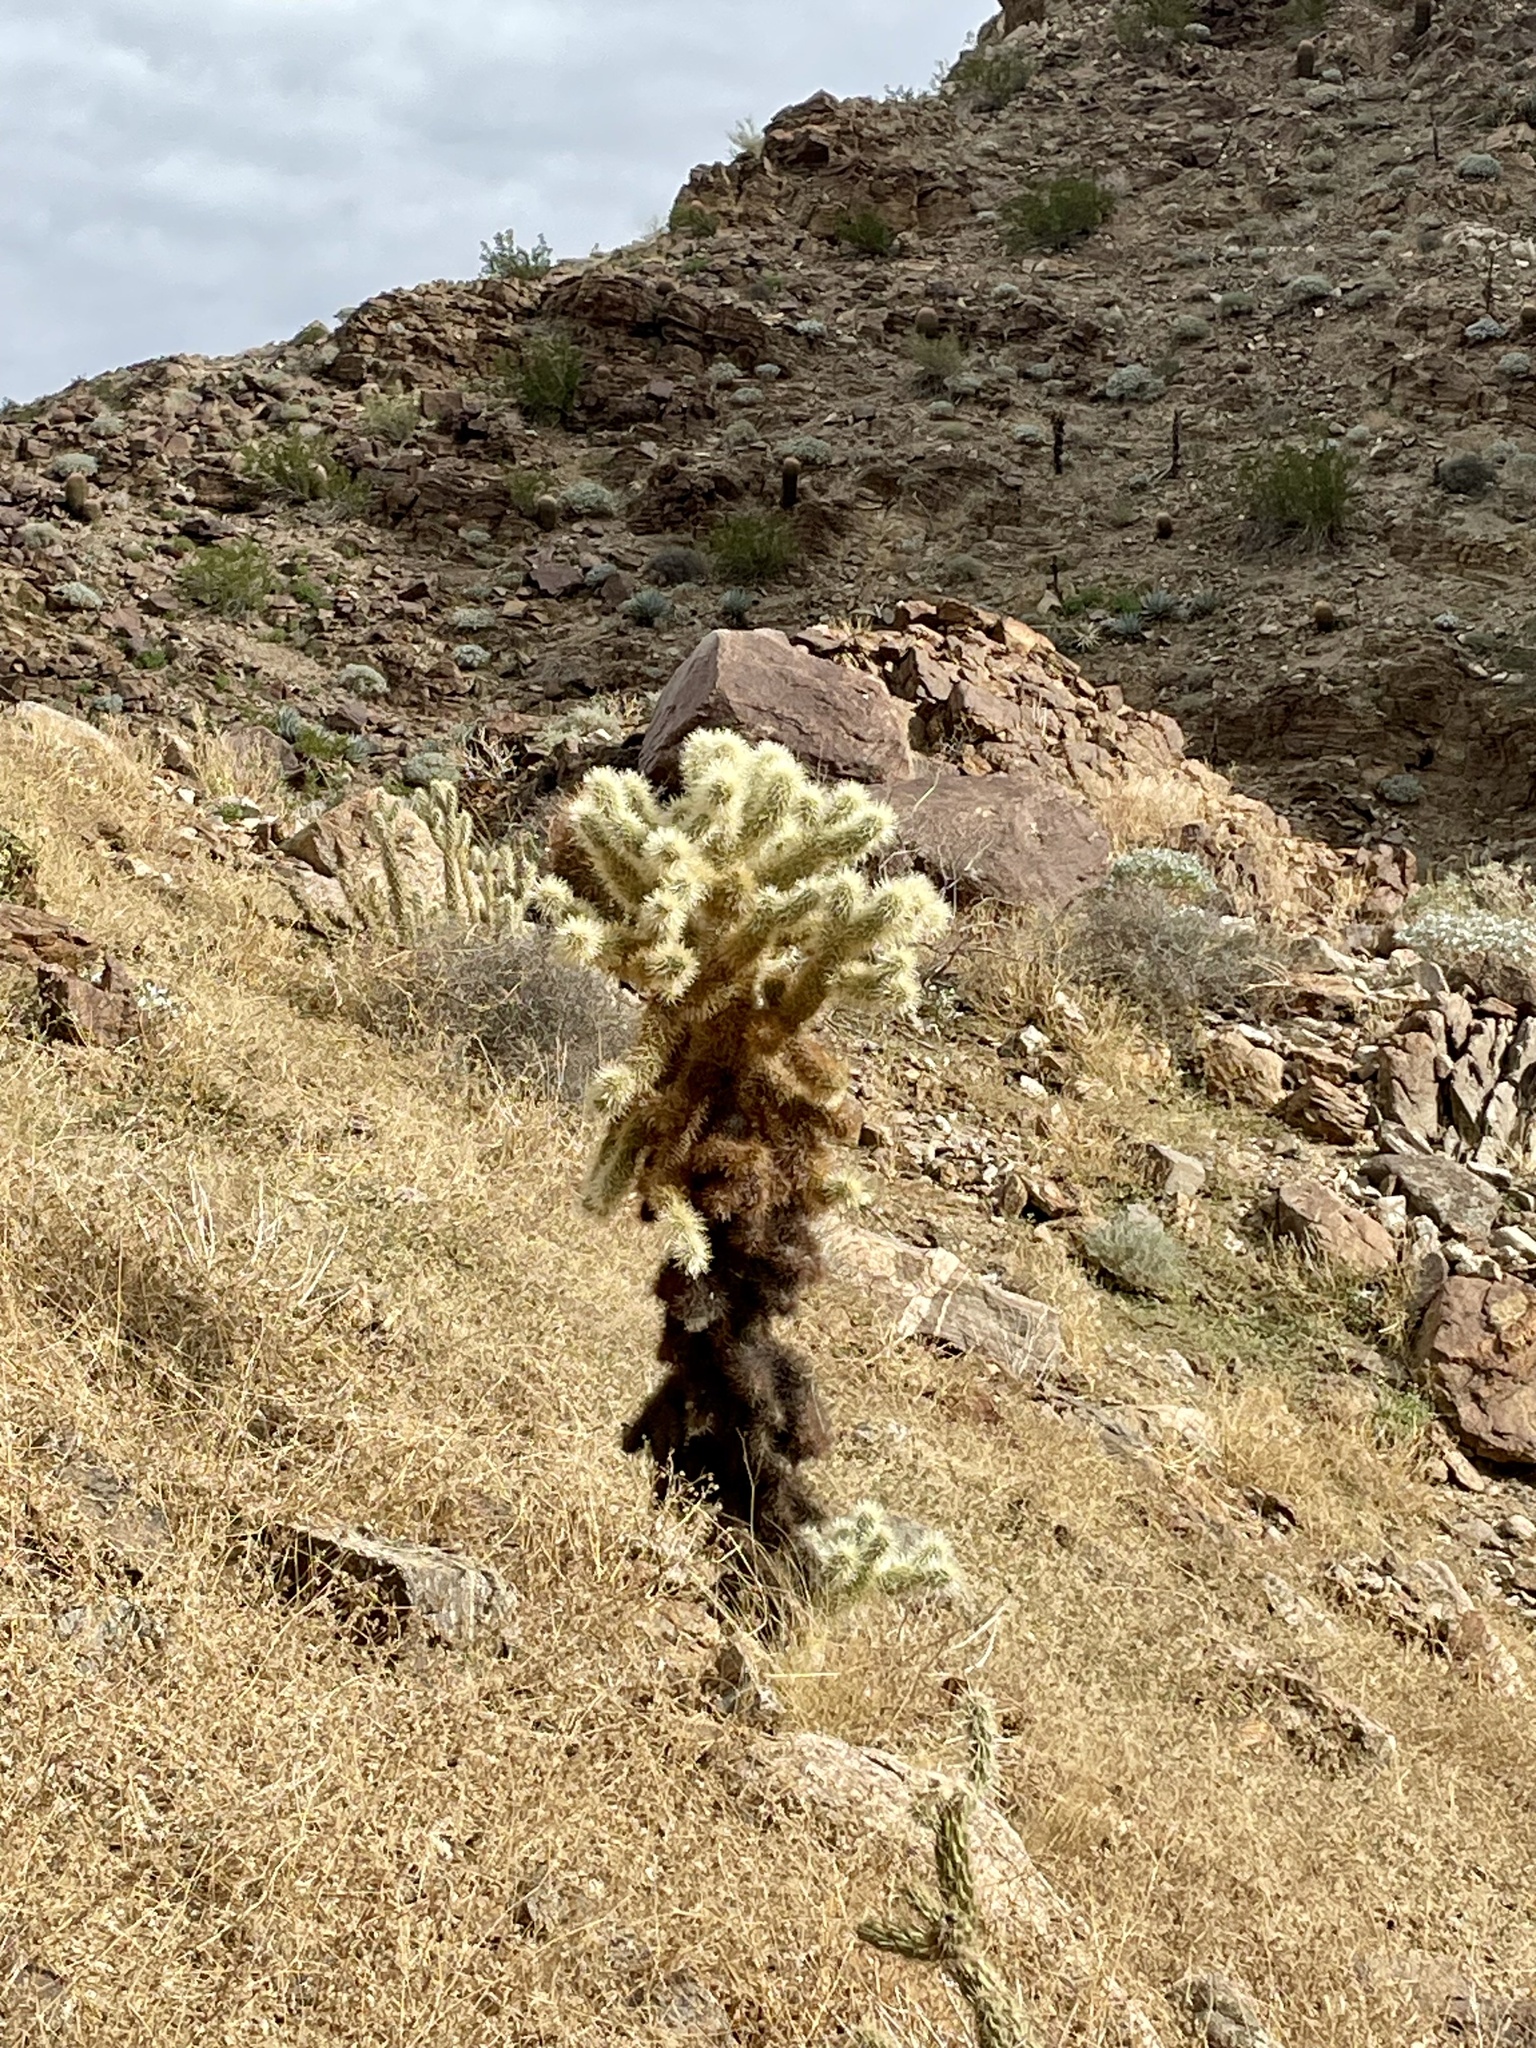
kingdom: Plantae
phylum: Tracheophyta
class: Magnoliopsida
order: Caryophyllales
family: Cactaceae
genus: Cylindropuntia
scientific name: Cylindropuntia fosbergii
